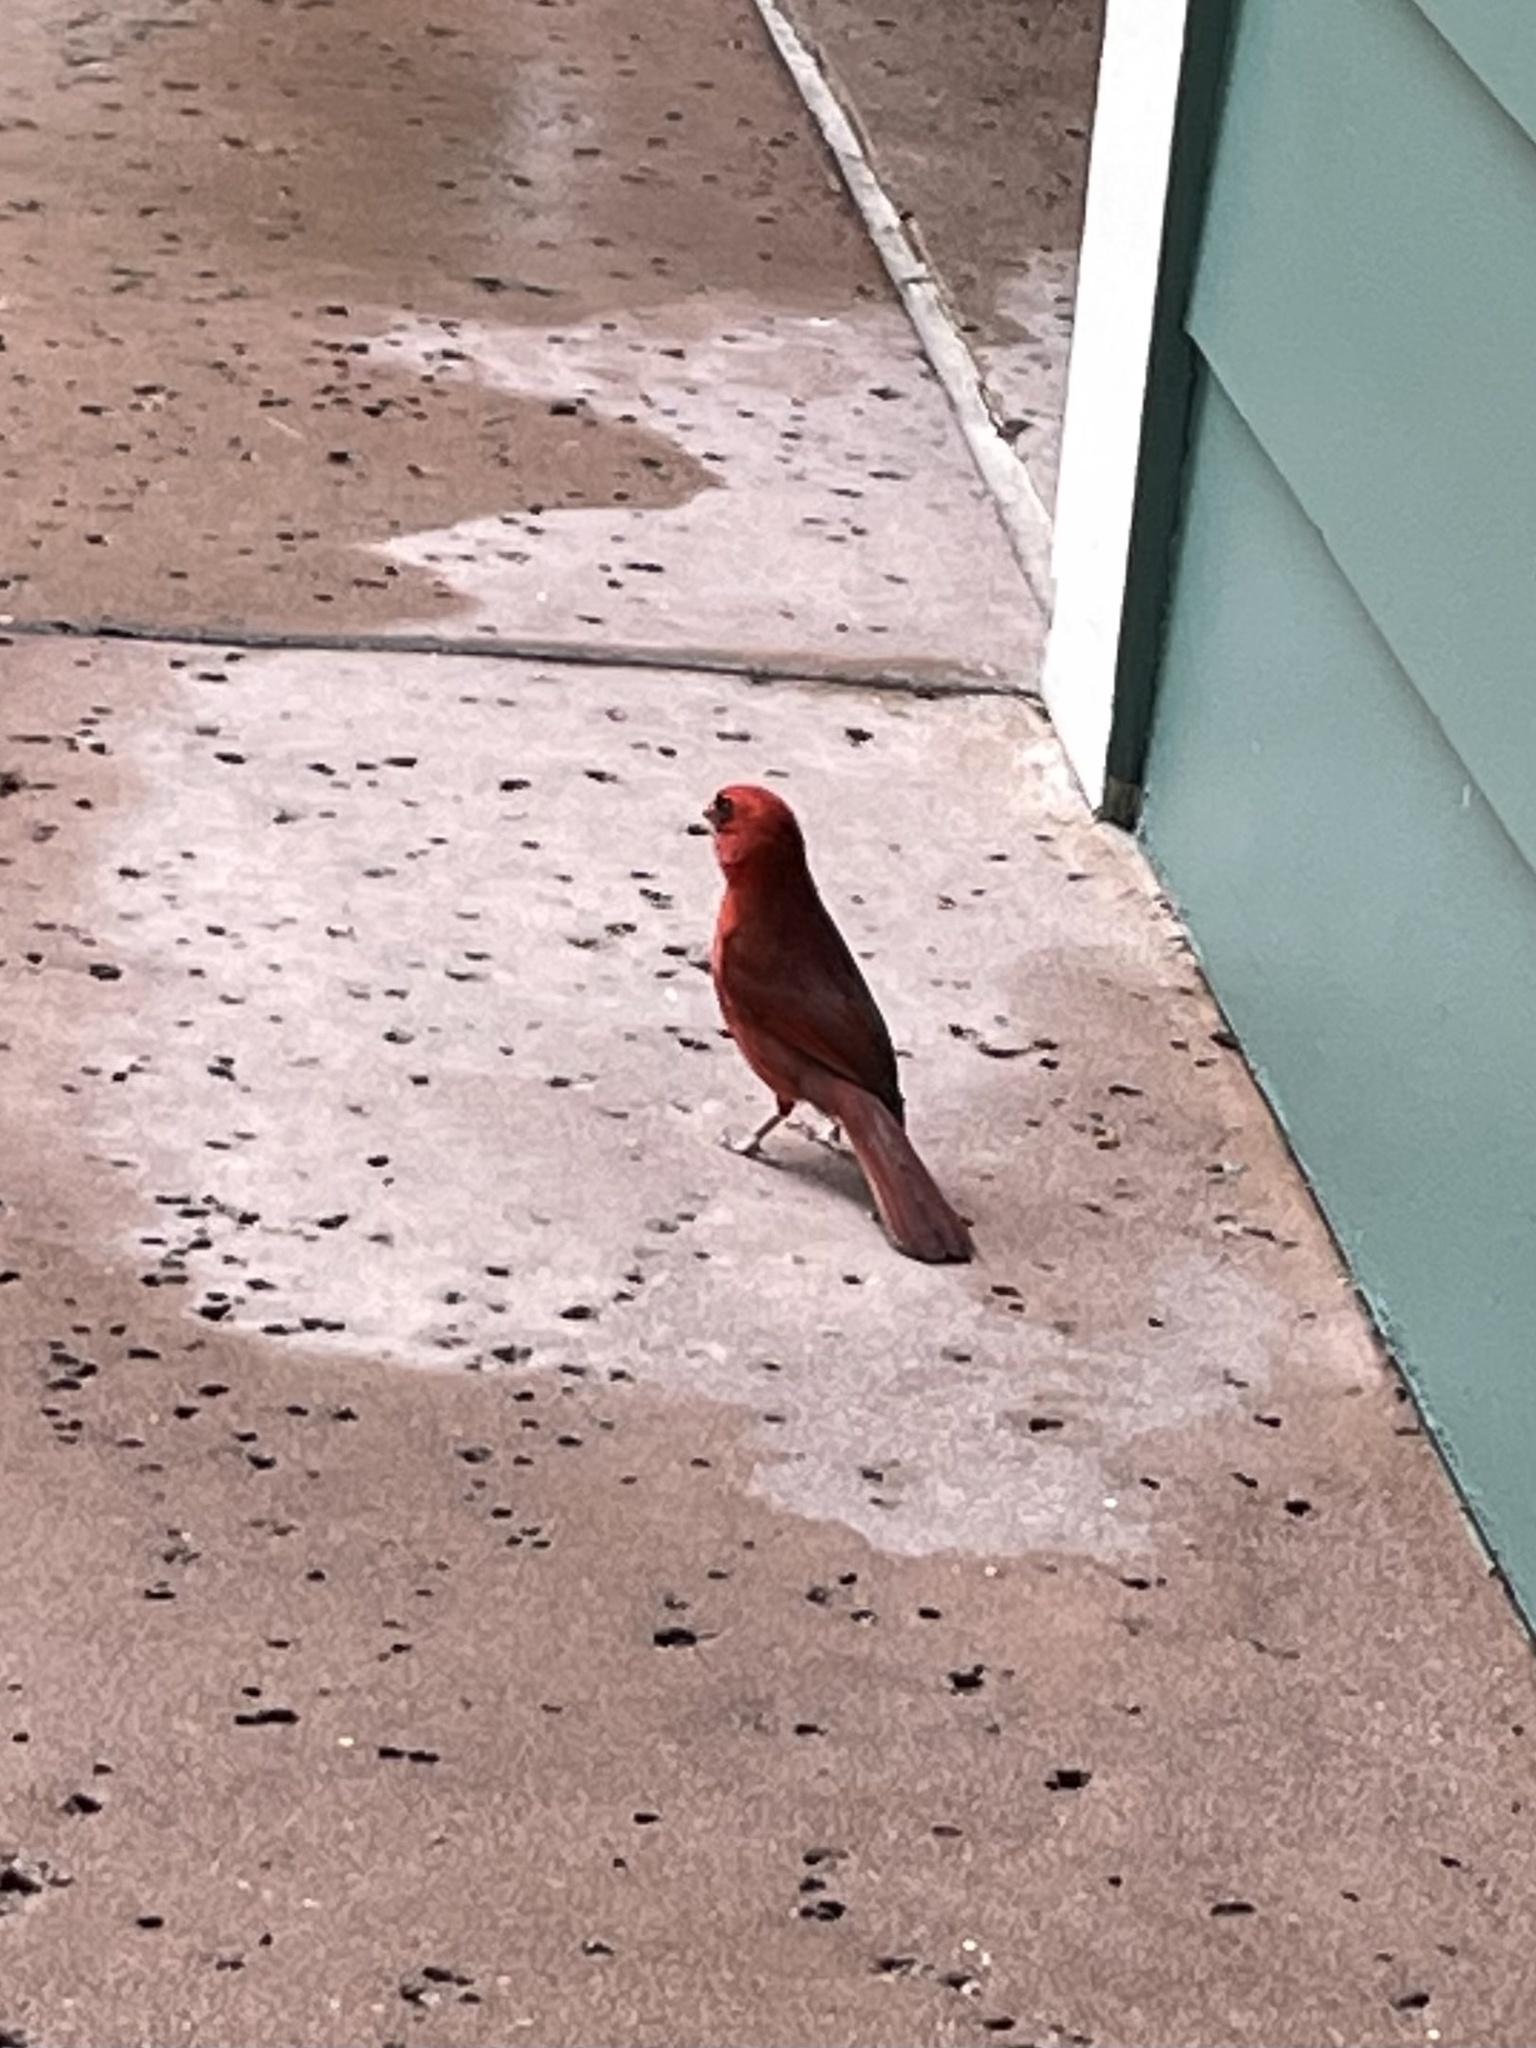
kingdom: Animalia
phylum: Chordata
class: Aves
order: Passeriformes
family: Cardinalidae
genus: Cardinalis
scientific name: Cardinalis cardinalis
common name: Northern cardinal
